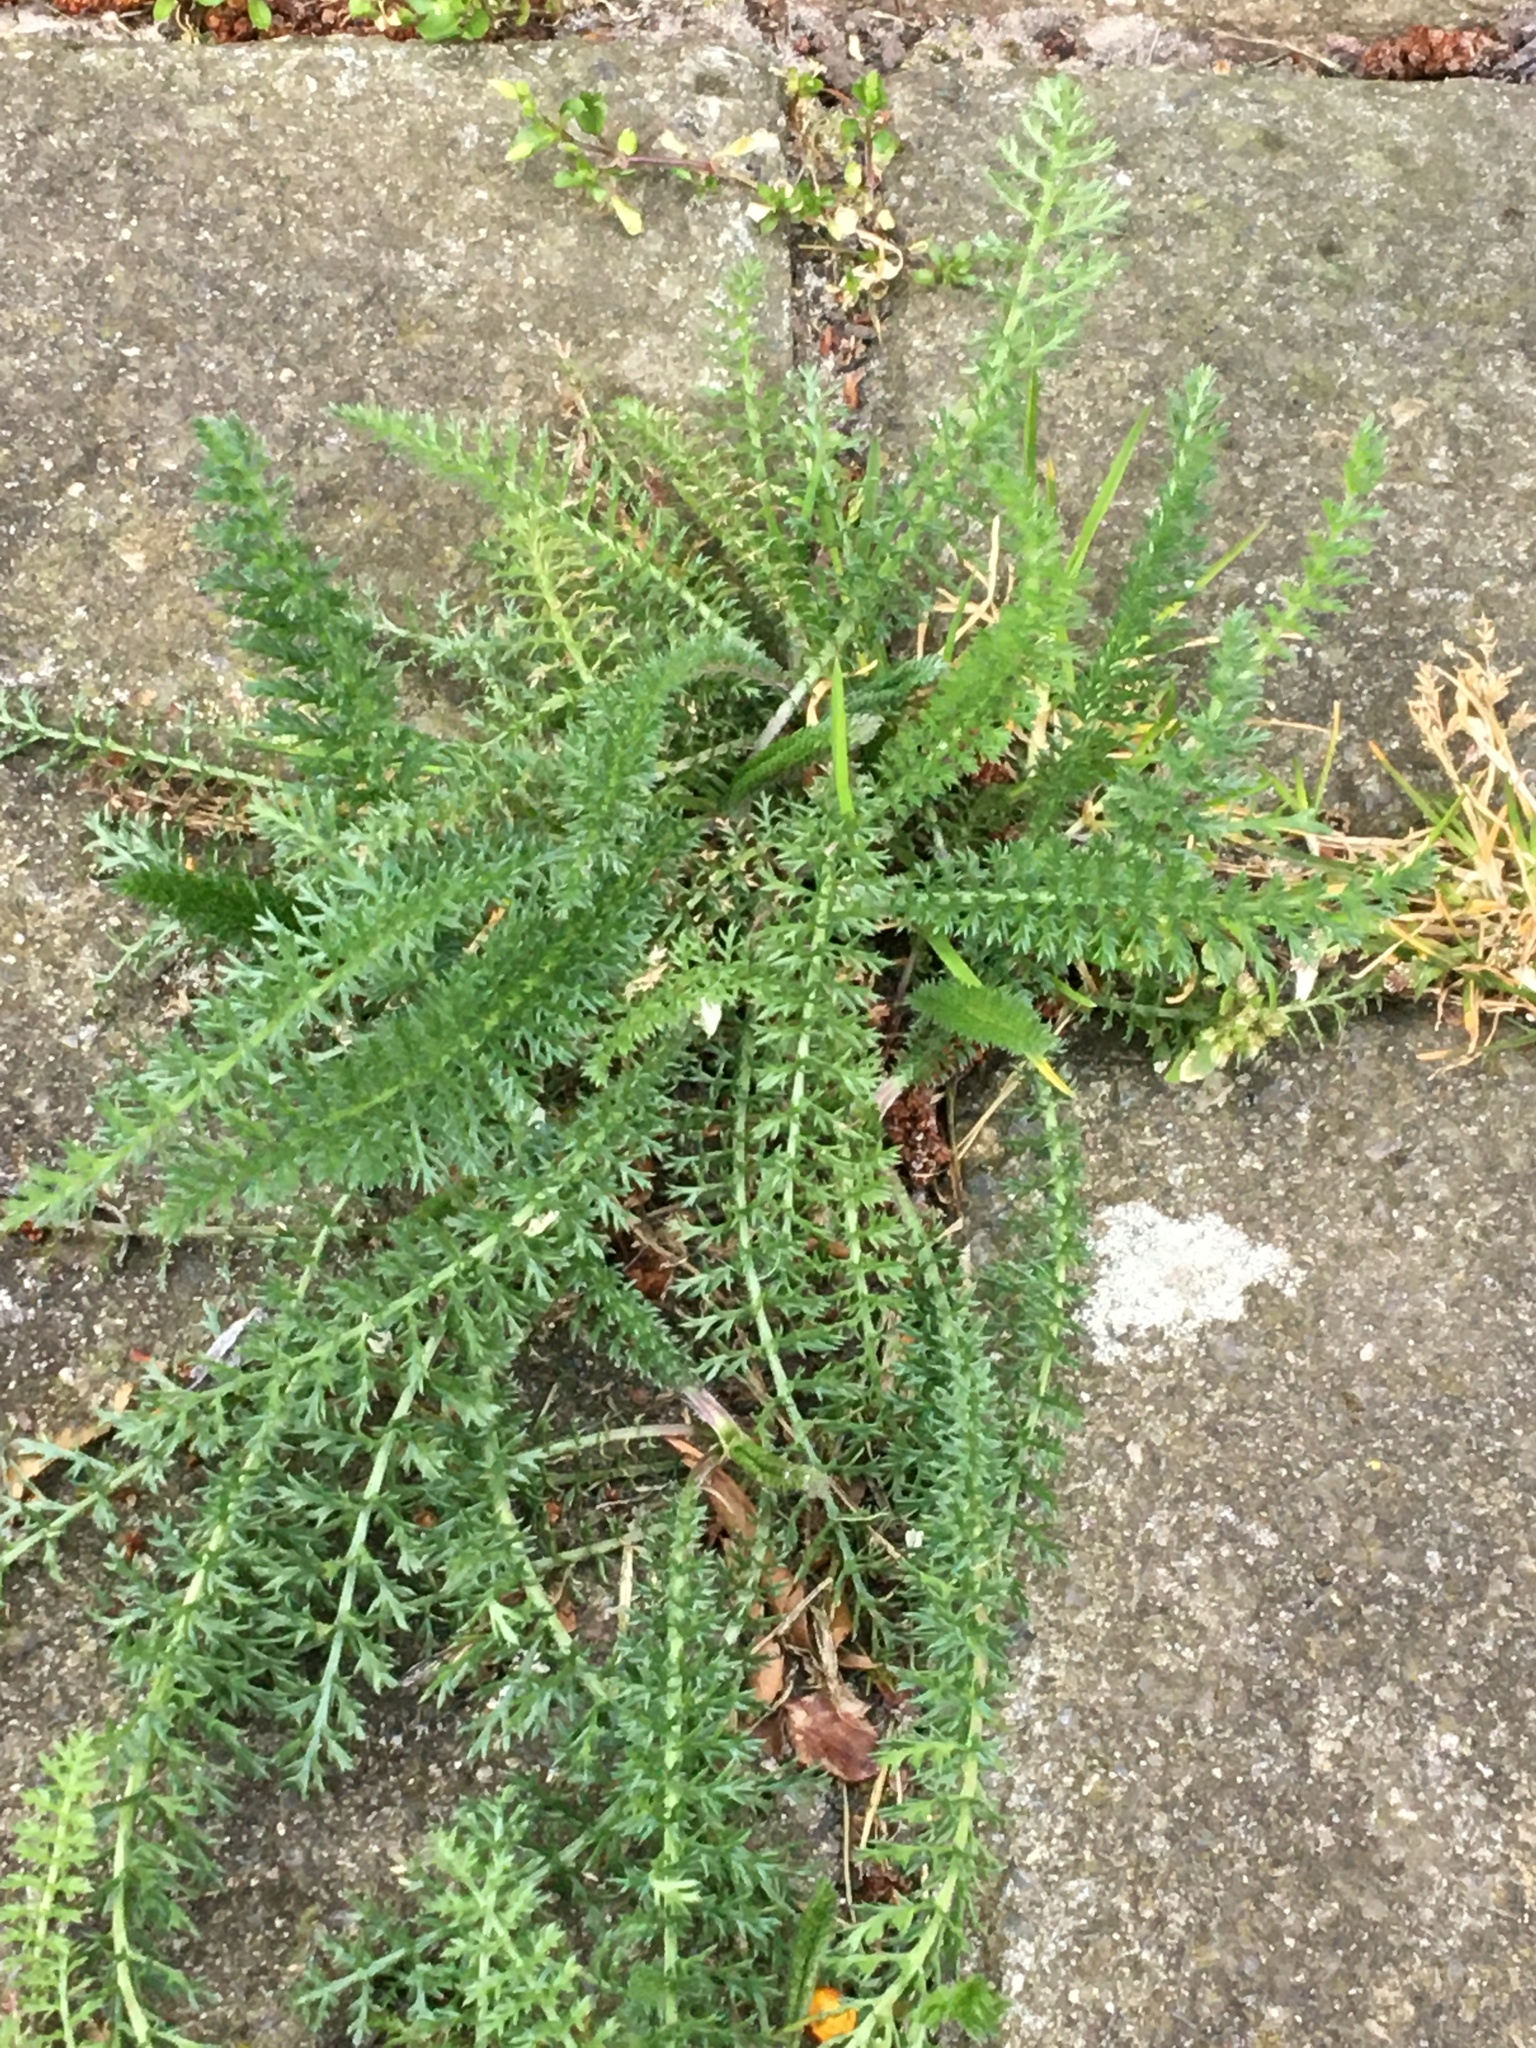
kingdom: Plantae
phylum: Tracheophyta
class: Magnoliopsida
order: Asterales
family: Asteraceae
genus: Achillea
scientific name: Achillea millefolium
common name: Yarrow
